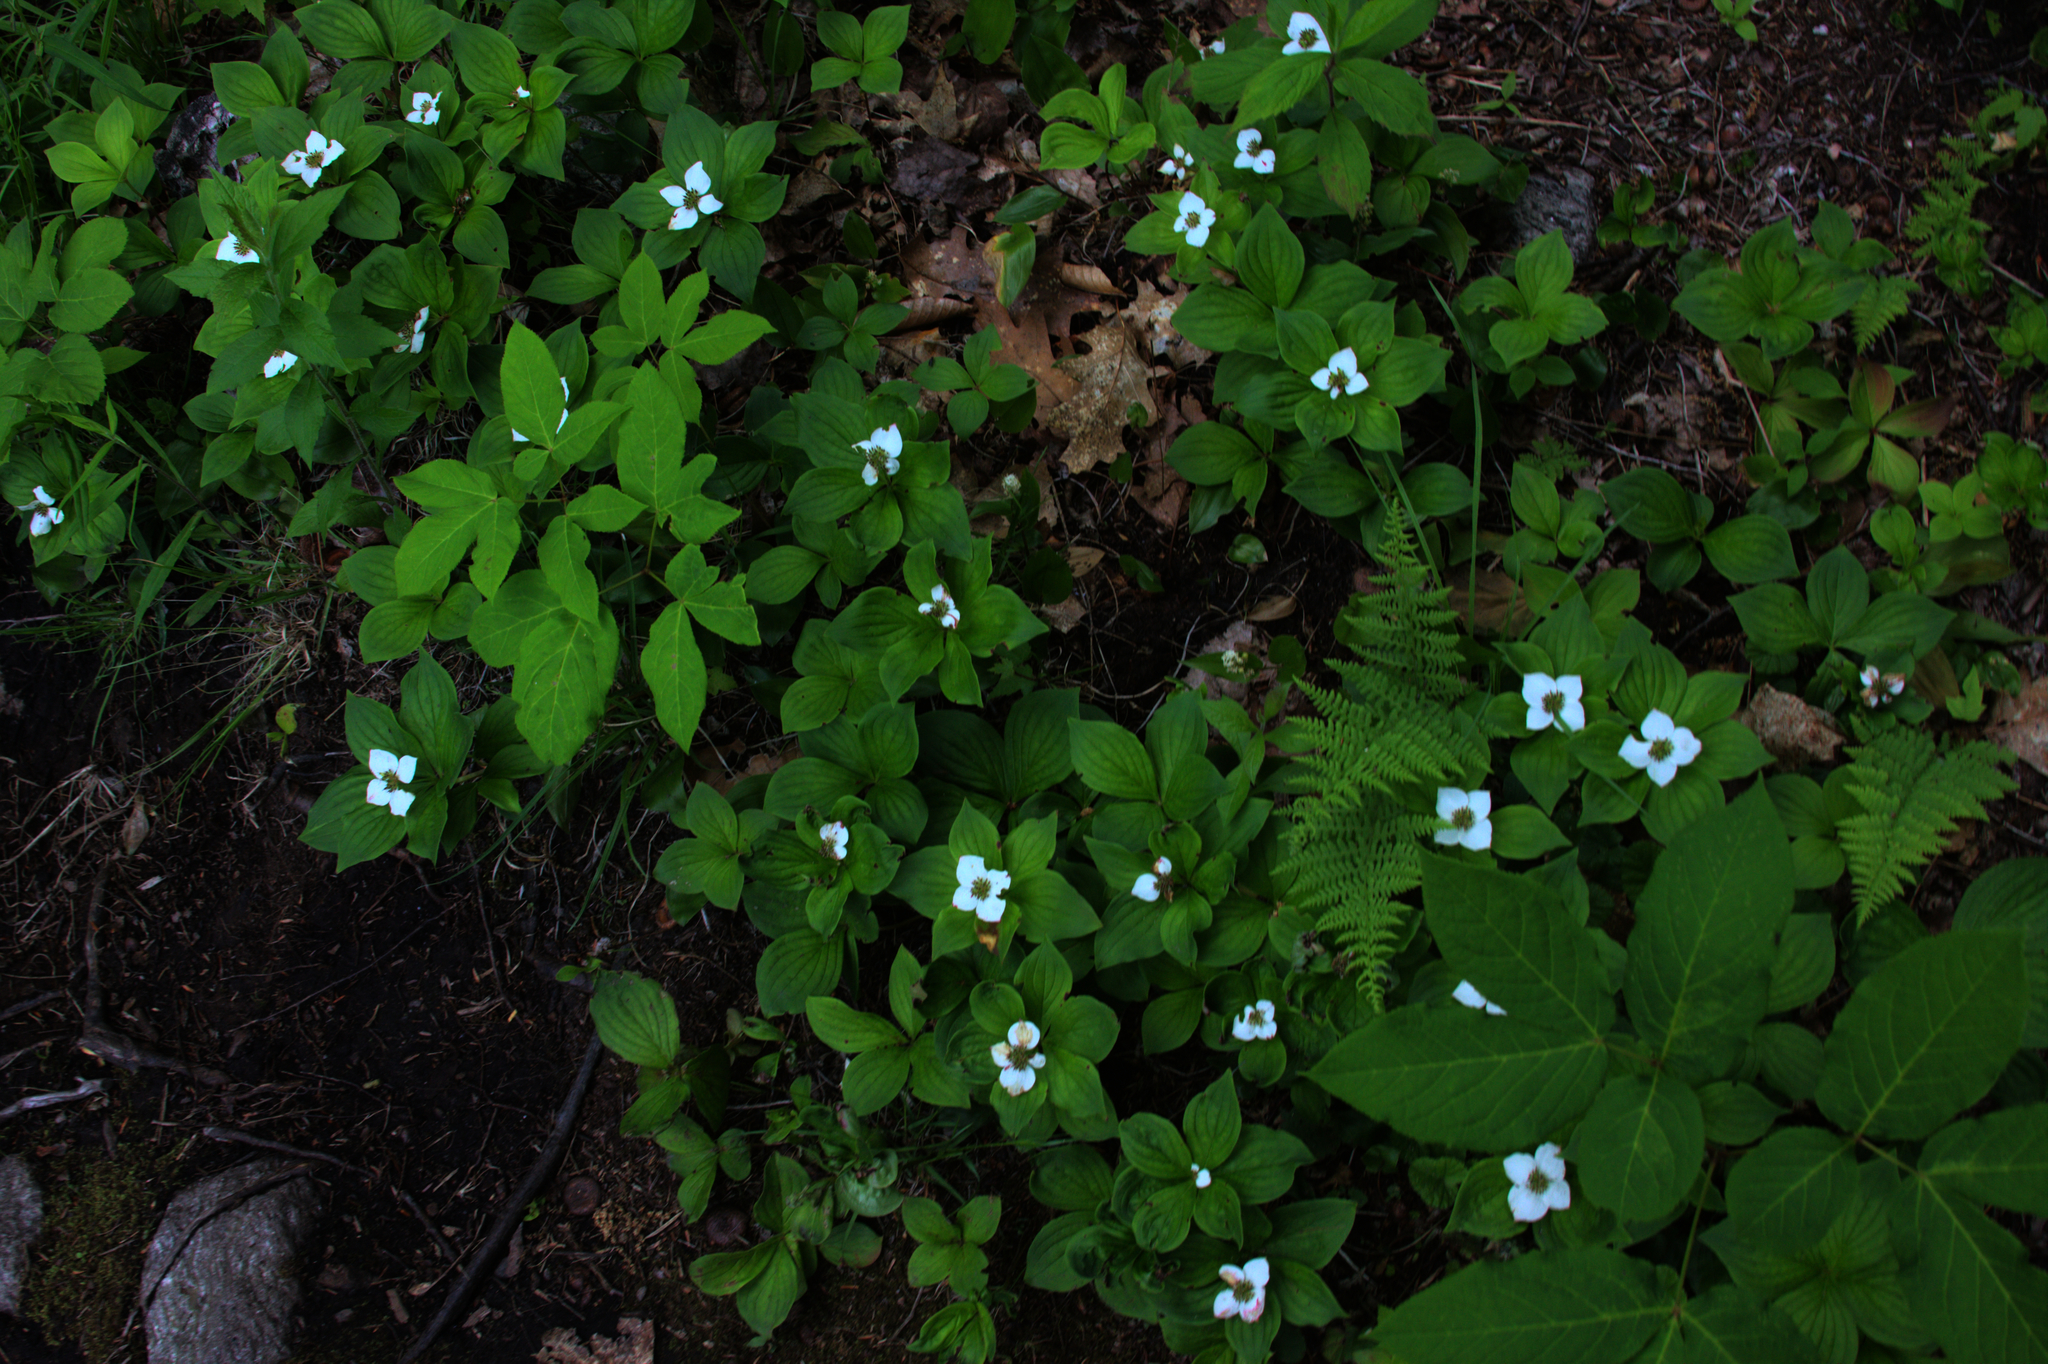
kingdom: Plantae
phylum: Tracheophyta
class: Magnoliopsida
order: Apiales
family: Araliaceae
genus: Aralia
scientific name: Aralia nudicaulis
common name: Wild sarsaparilla
